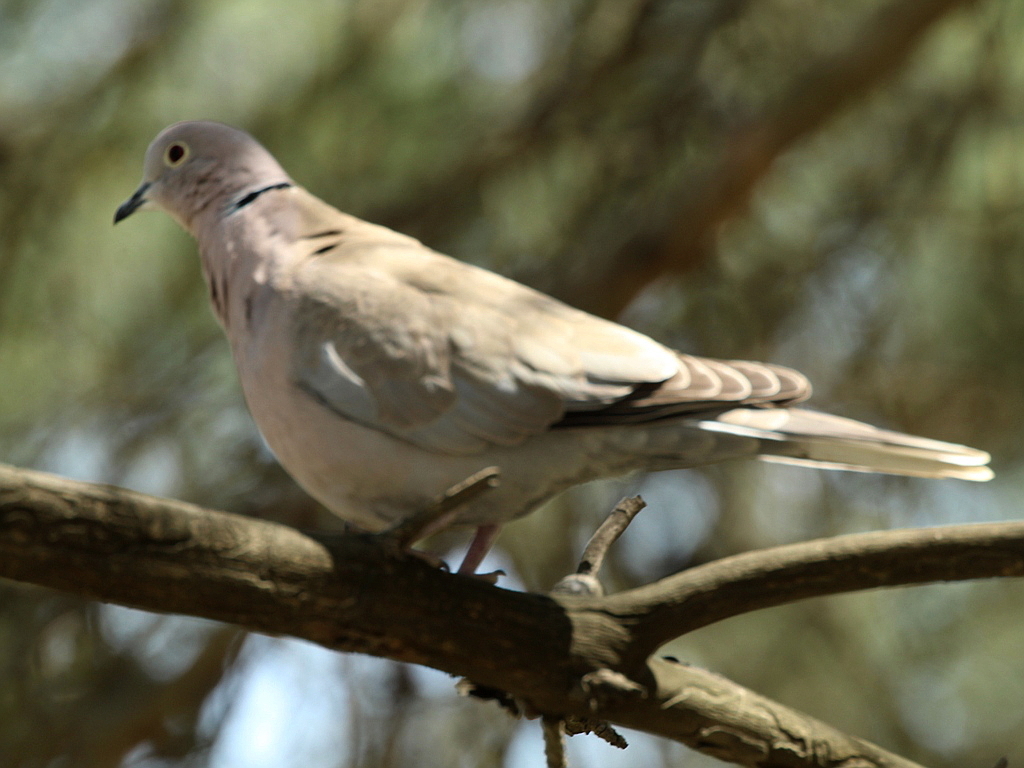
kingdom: Animalia
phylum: Chordata
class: Aves
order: Columbiformes
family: Columbidae
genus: Streptopelia
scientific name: Streptopelia decaocto
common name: Eurasian collared dove
